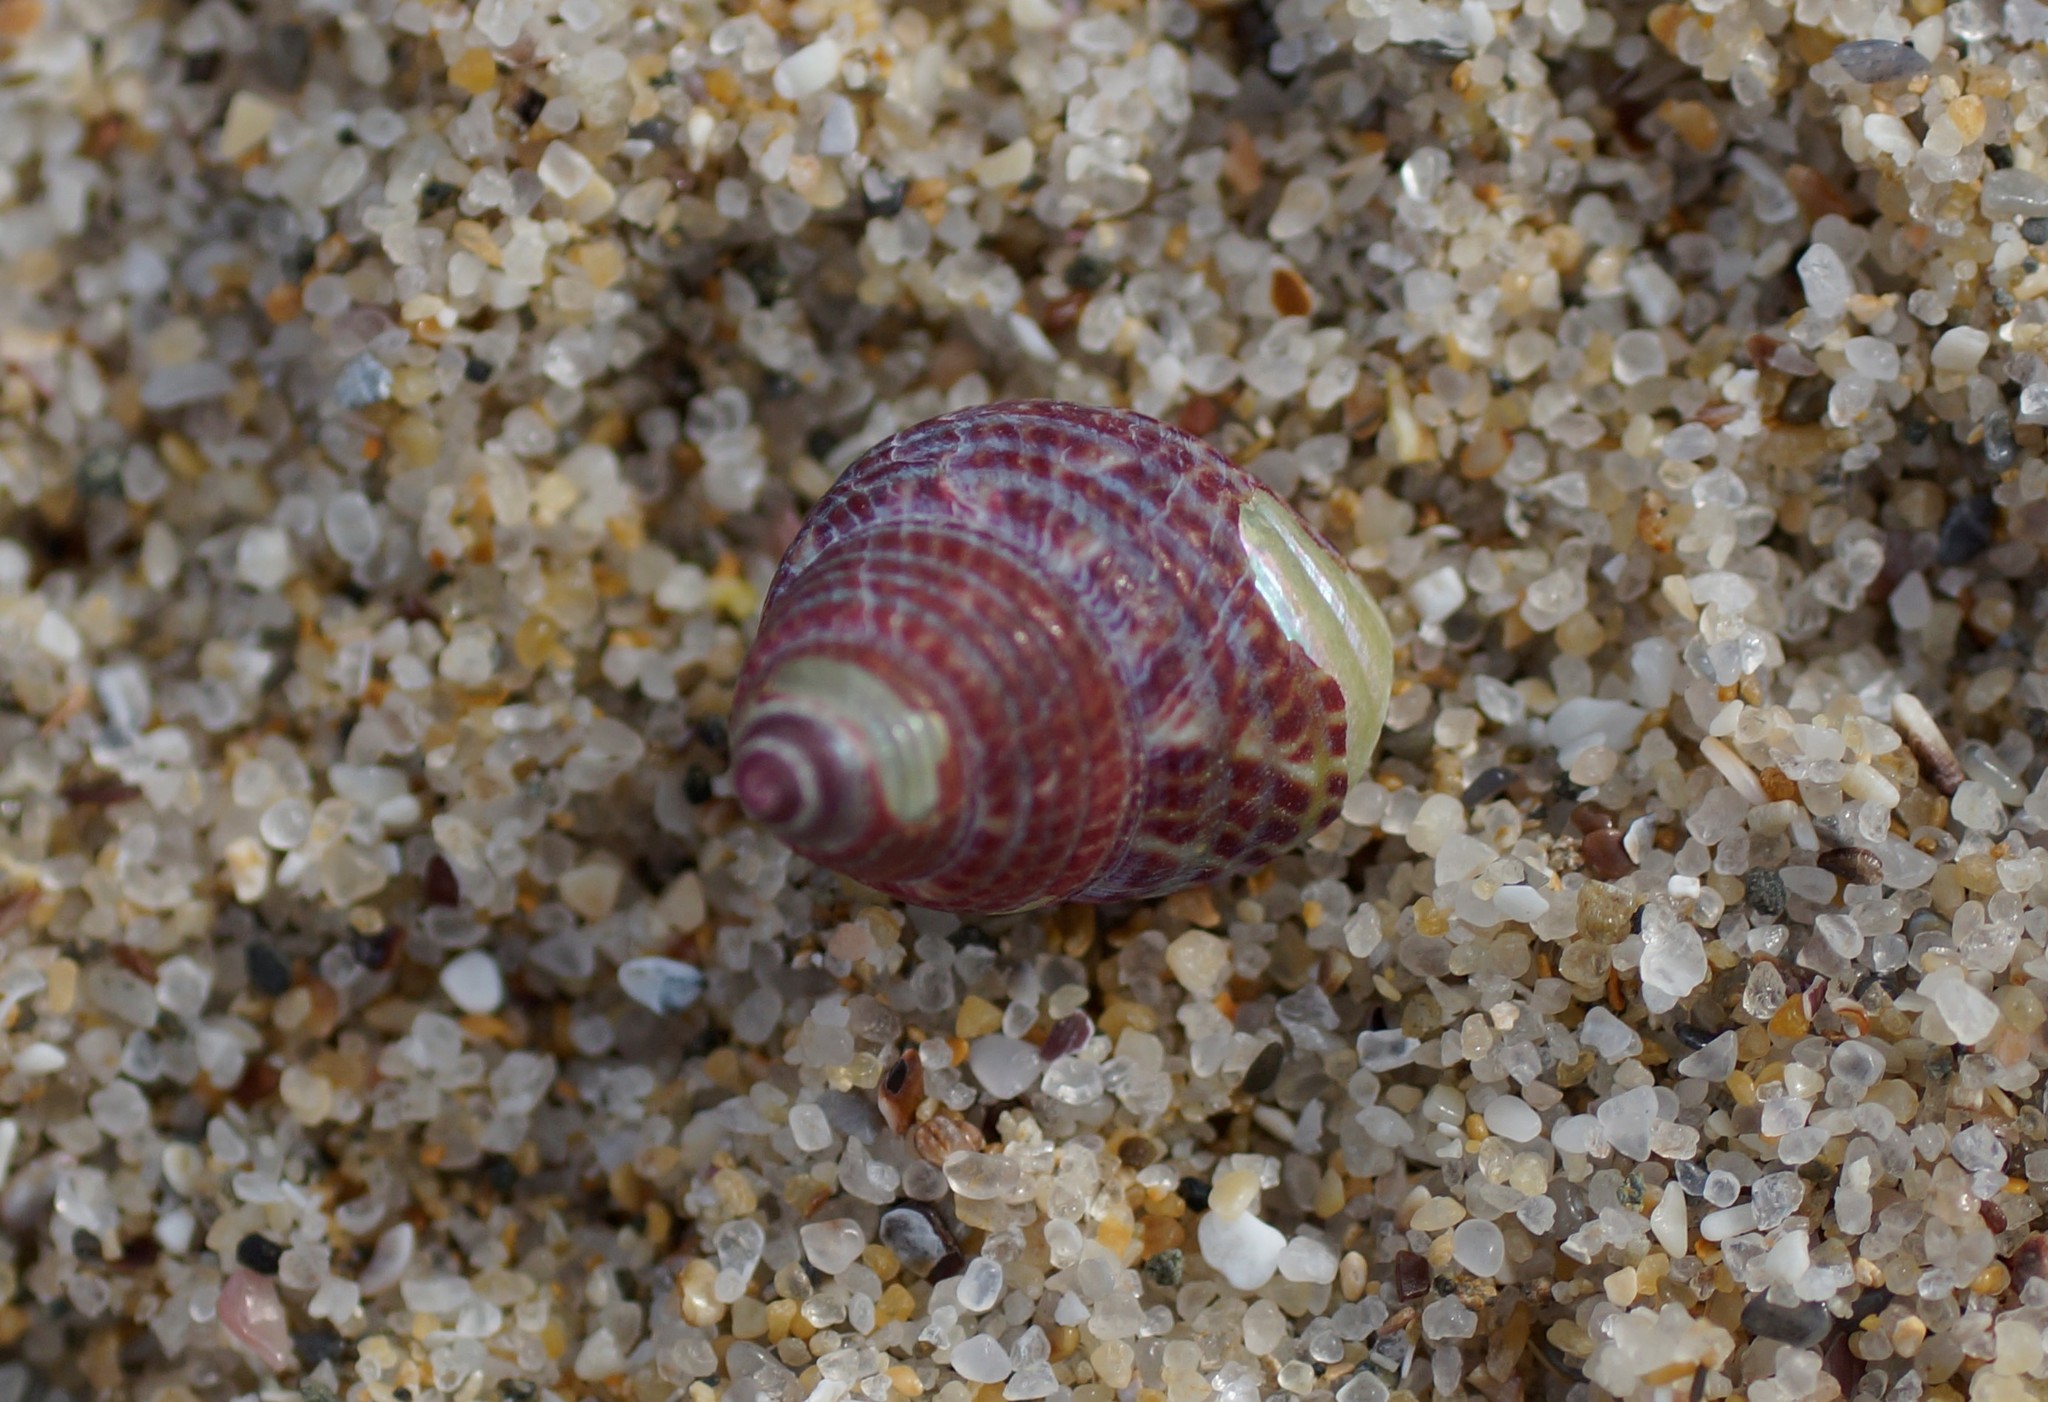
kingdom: Animalia
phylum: Mollusca
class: Gastropoda
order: Trochida
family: Trochidae
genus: Prothalotia
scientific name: Prothalotia pulcherrima
